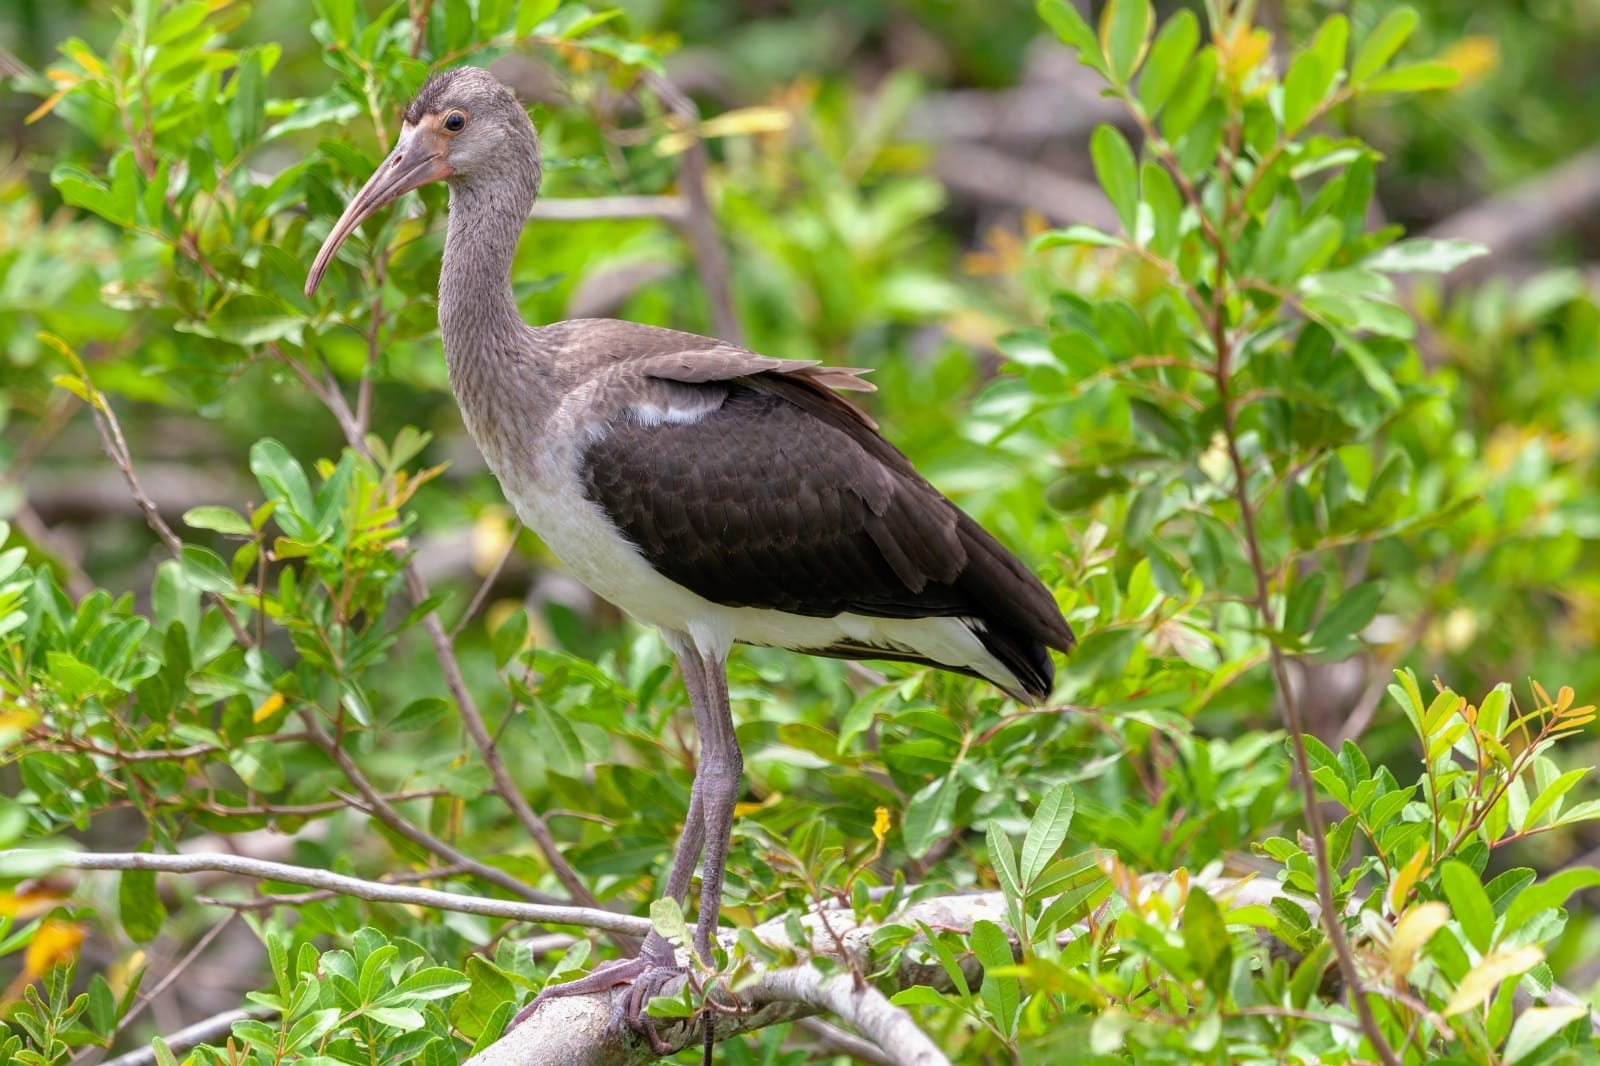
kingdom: Animalia
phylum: Chordata
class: Aves
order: Pelecaniformes
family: Threskiornithidae
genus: Eudocimus
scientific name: Eudocimus albus
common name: White ibis
